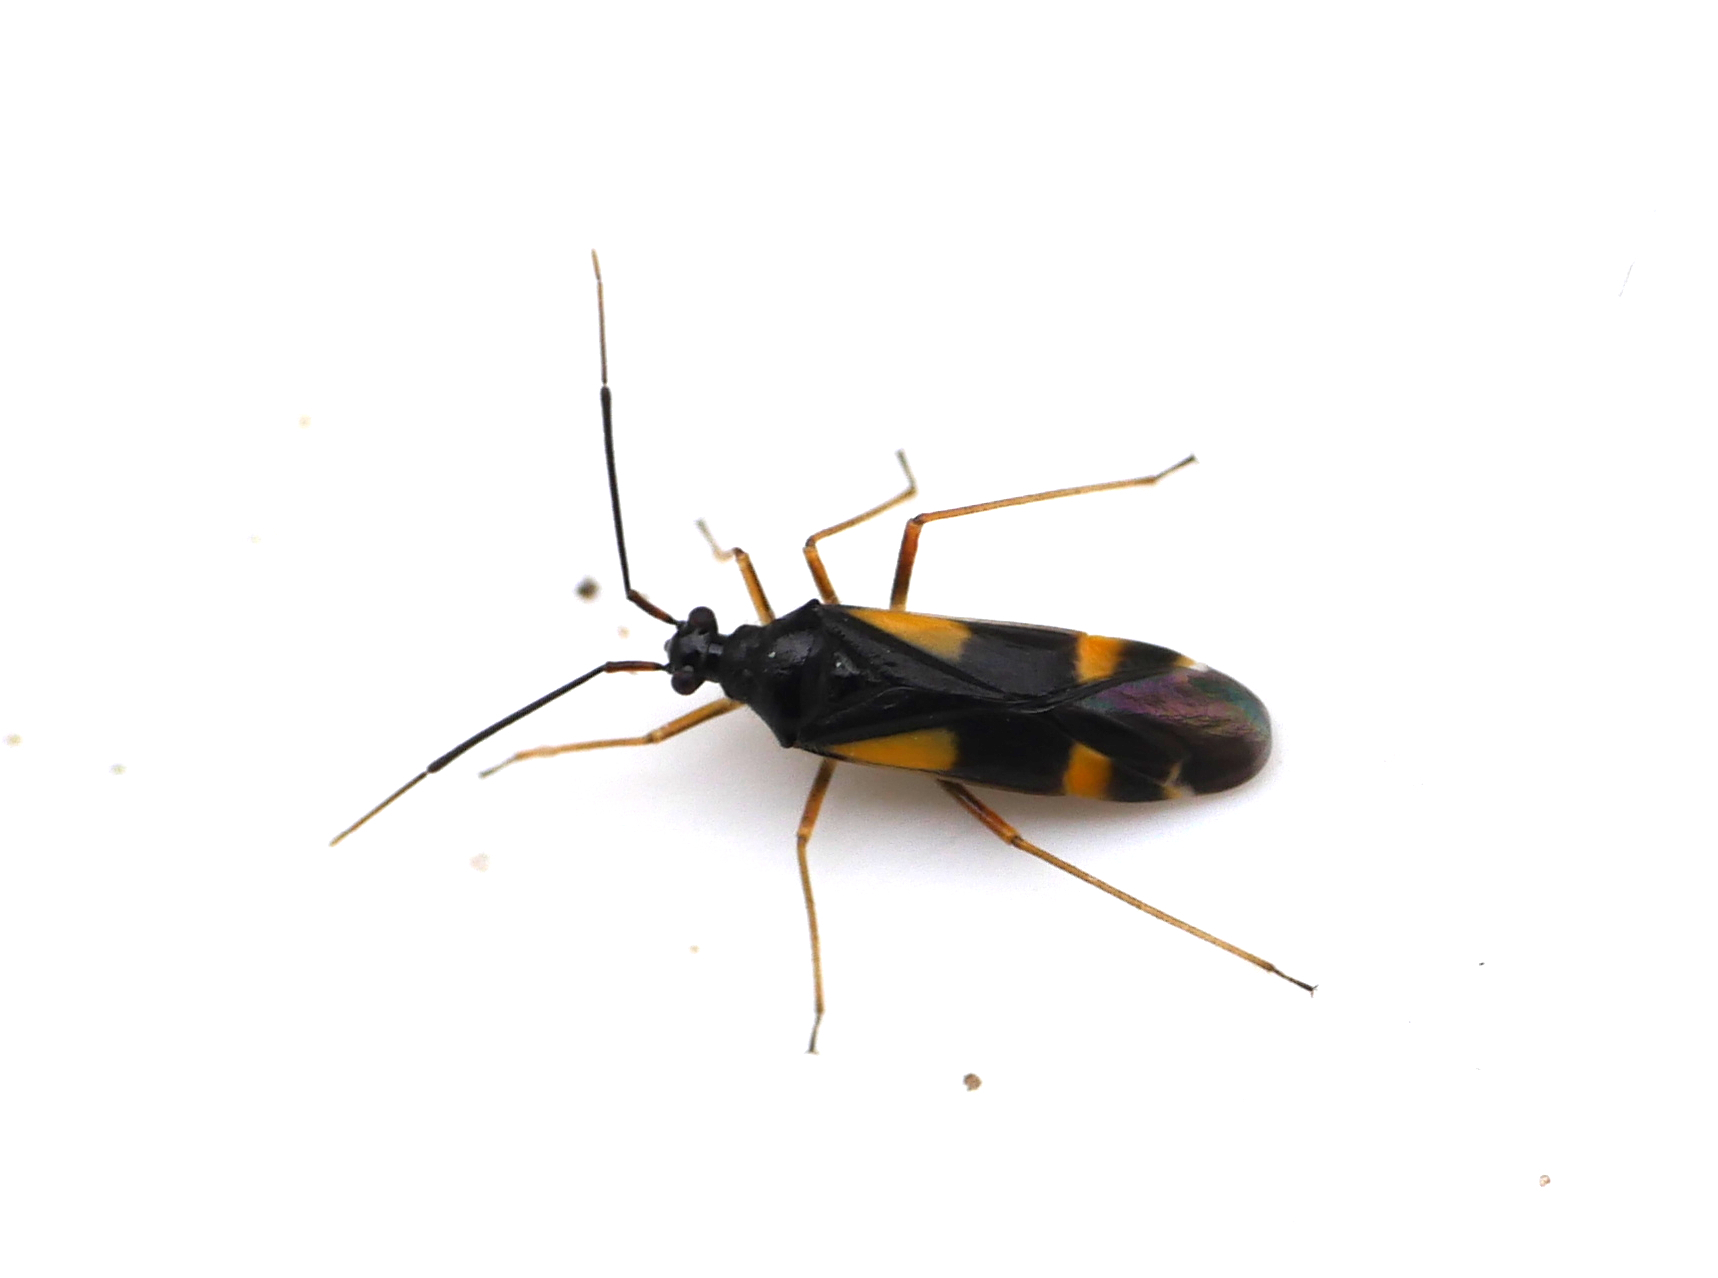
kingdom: Animalia
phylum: Arthropoda
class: Insecta
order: Hemiptera
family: Miridae
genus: Dryophilocoris
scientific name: Dryophilocoris flavoquadrimaculatus
